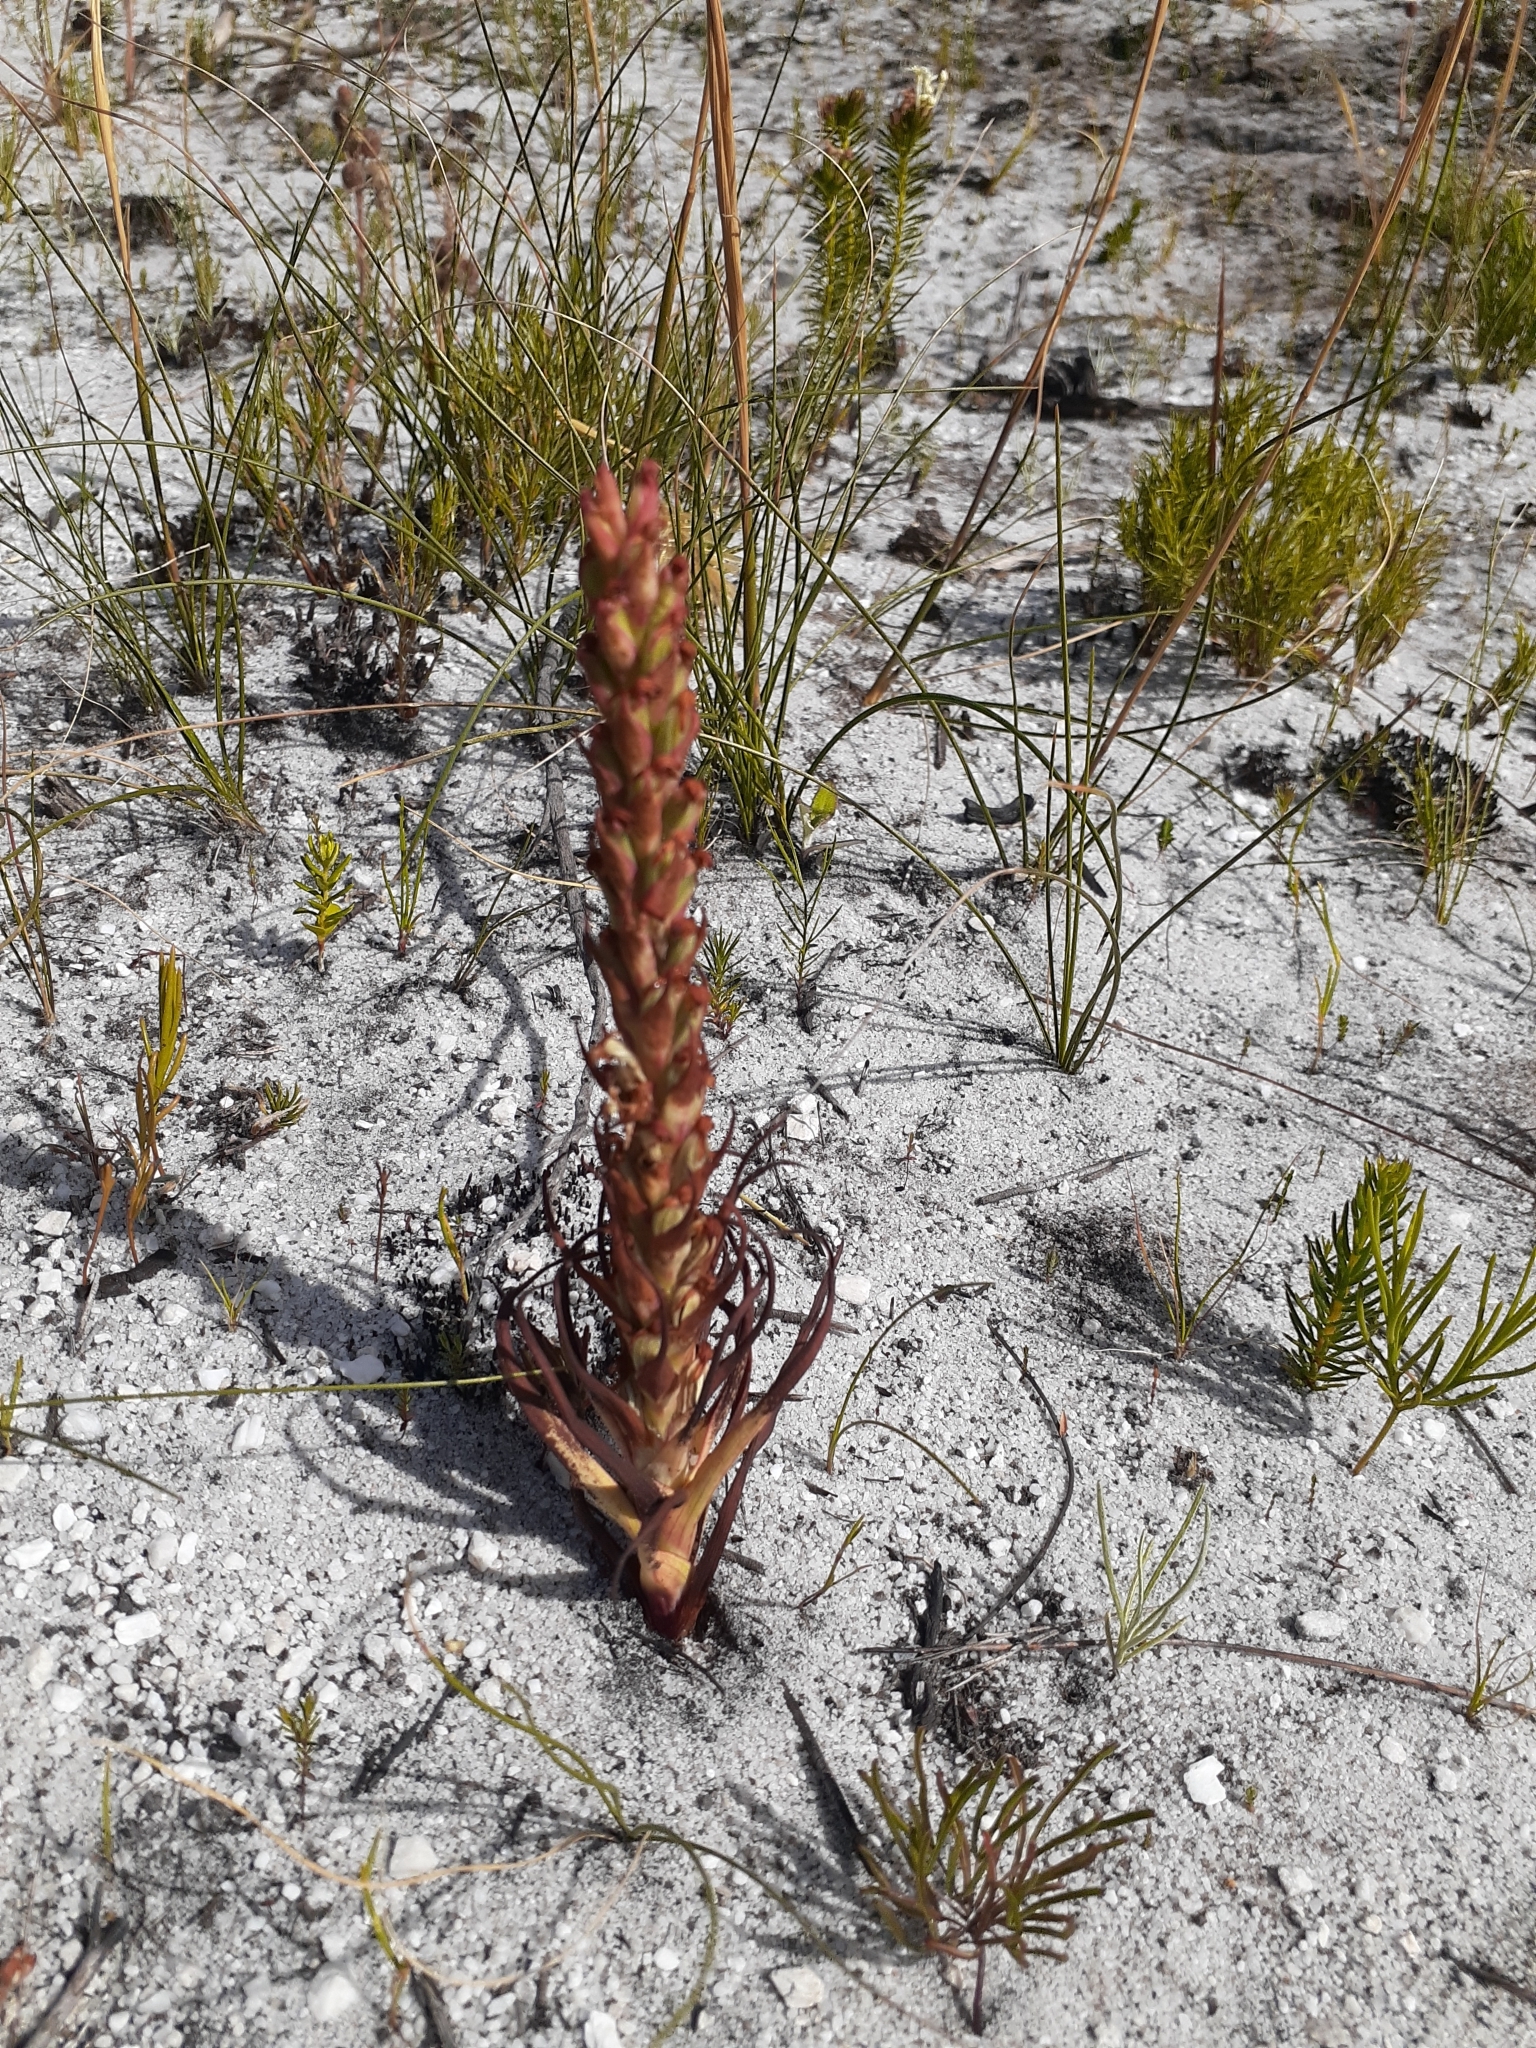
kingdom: Plantae
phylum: Tracheophyta
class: Liliopsida
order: Asparagales
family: Orchidaceae
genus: Disa
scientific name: Disa bracteata
